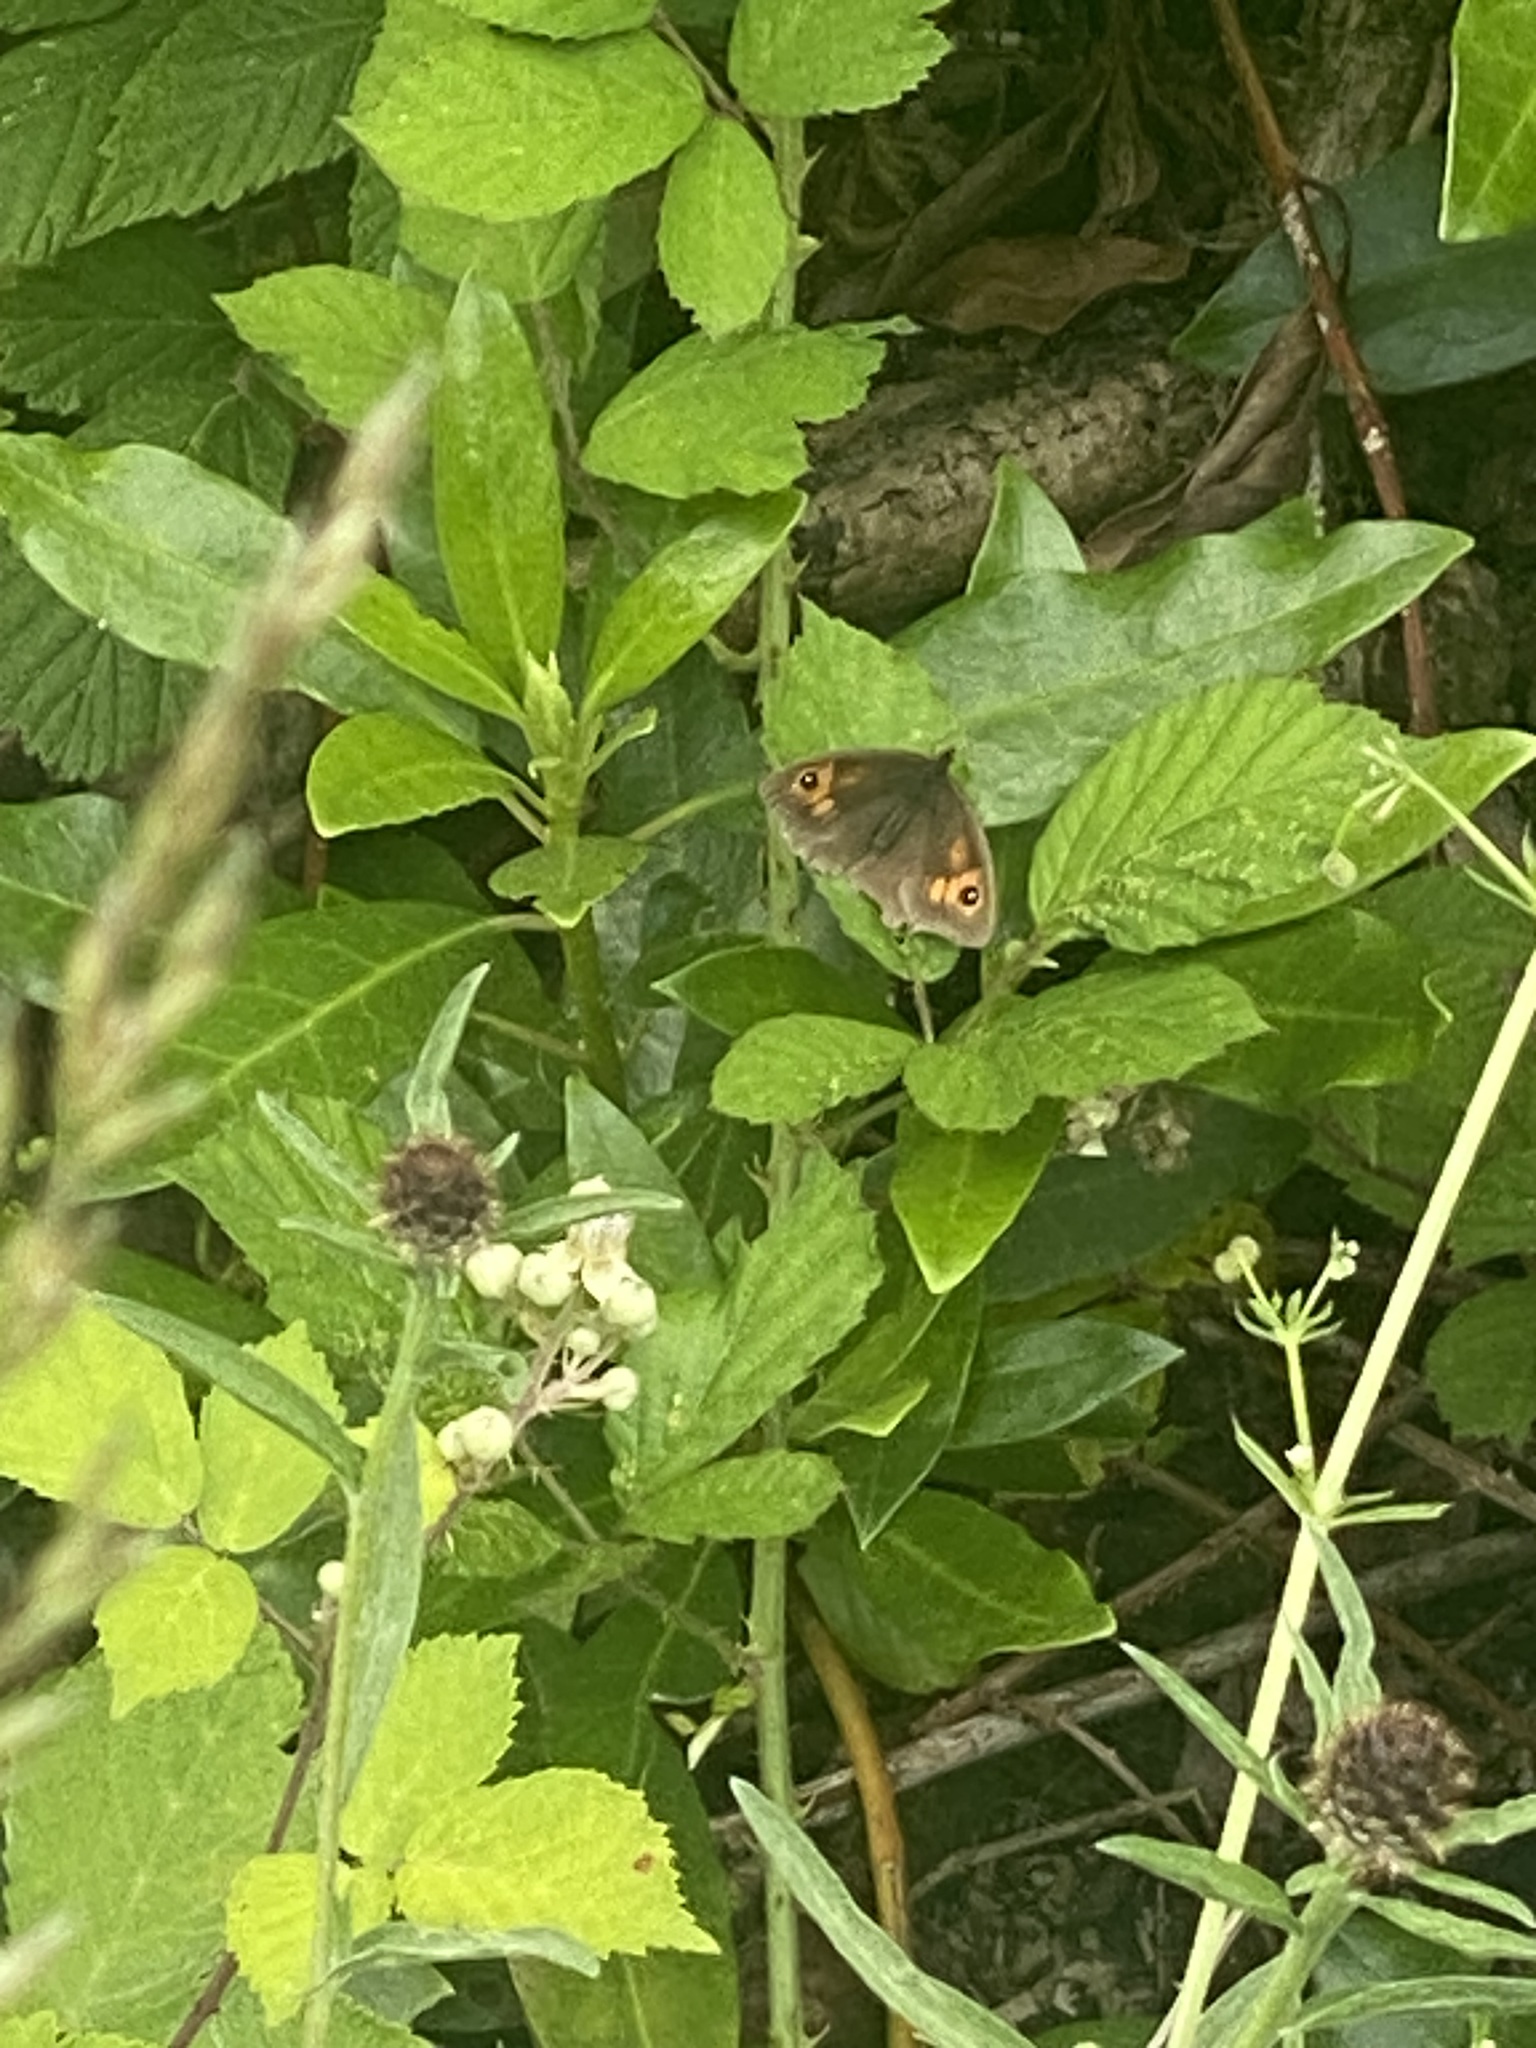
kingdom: Animalia
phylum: Arthropoda
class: Insecta
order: Lepidoptera
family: Nymphalidae
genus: Maniola
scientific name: Maniola jurtina
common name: Meadow brown
